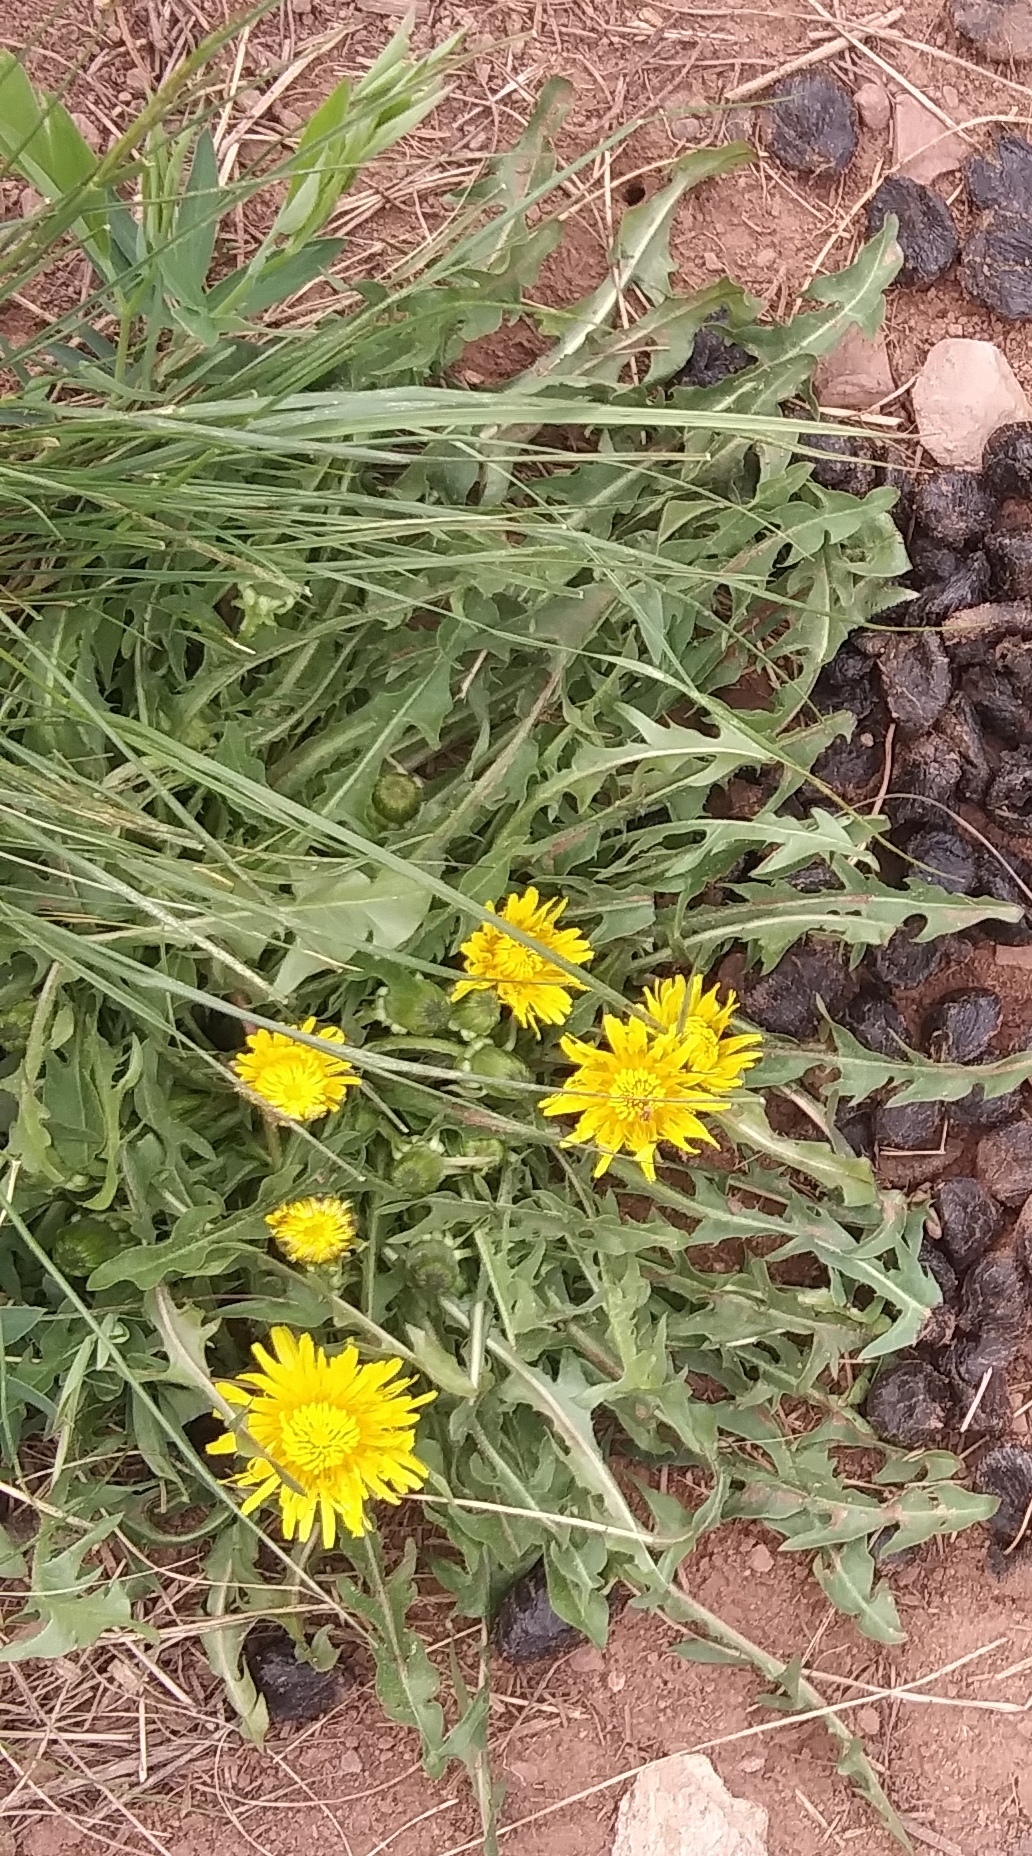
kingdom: Plantae
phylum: Tracheophyta
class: Magnoliopsida
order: Asterales
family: Asteraceae
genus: Taraxacum
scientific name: Taraxacum officinale
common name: Common dandelion
